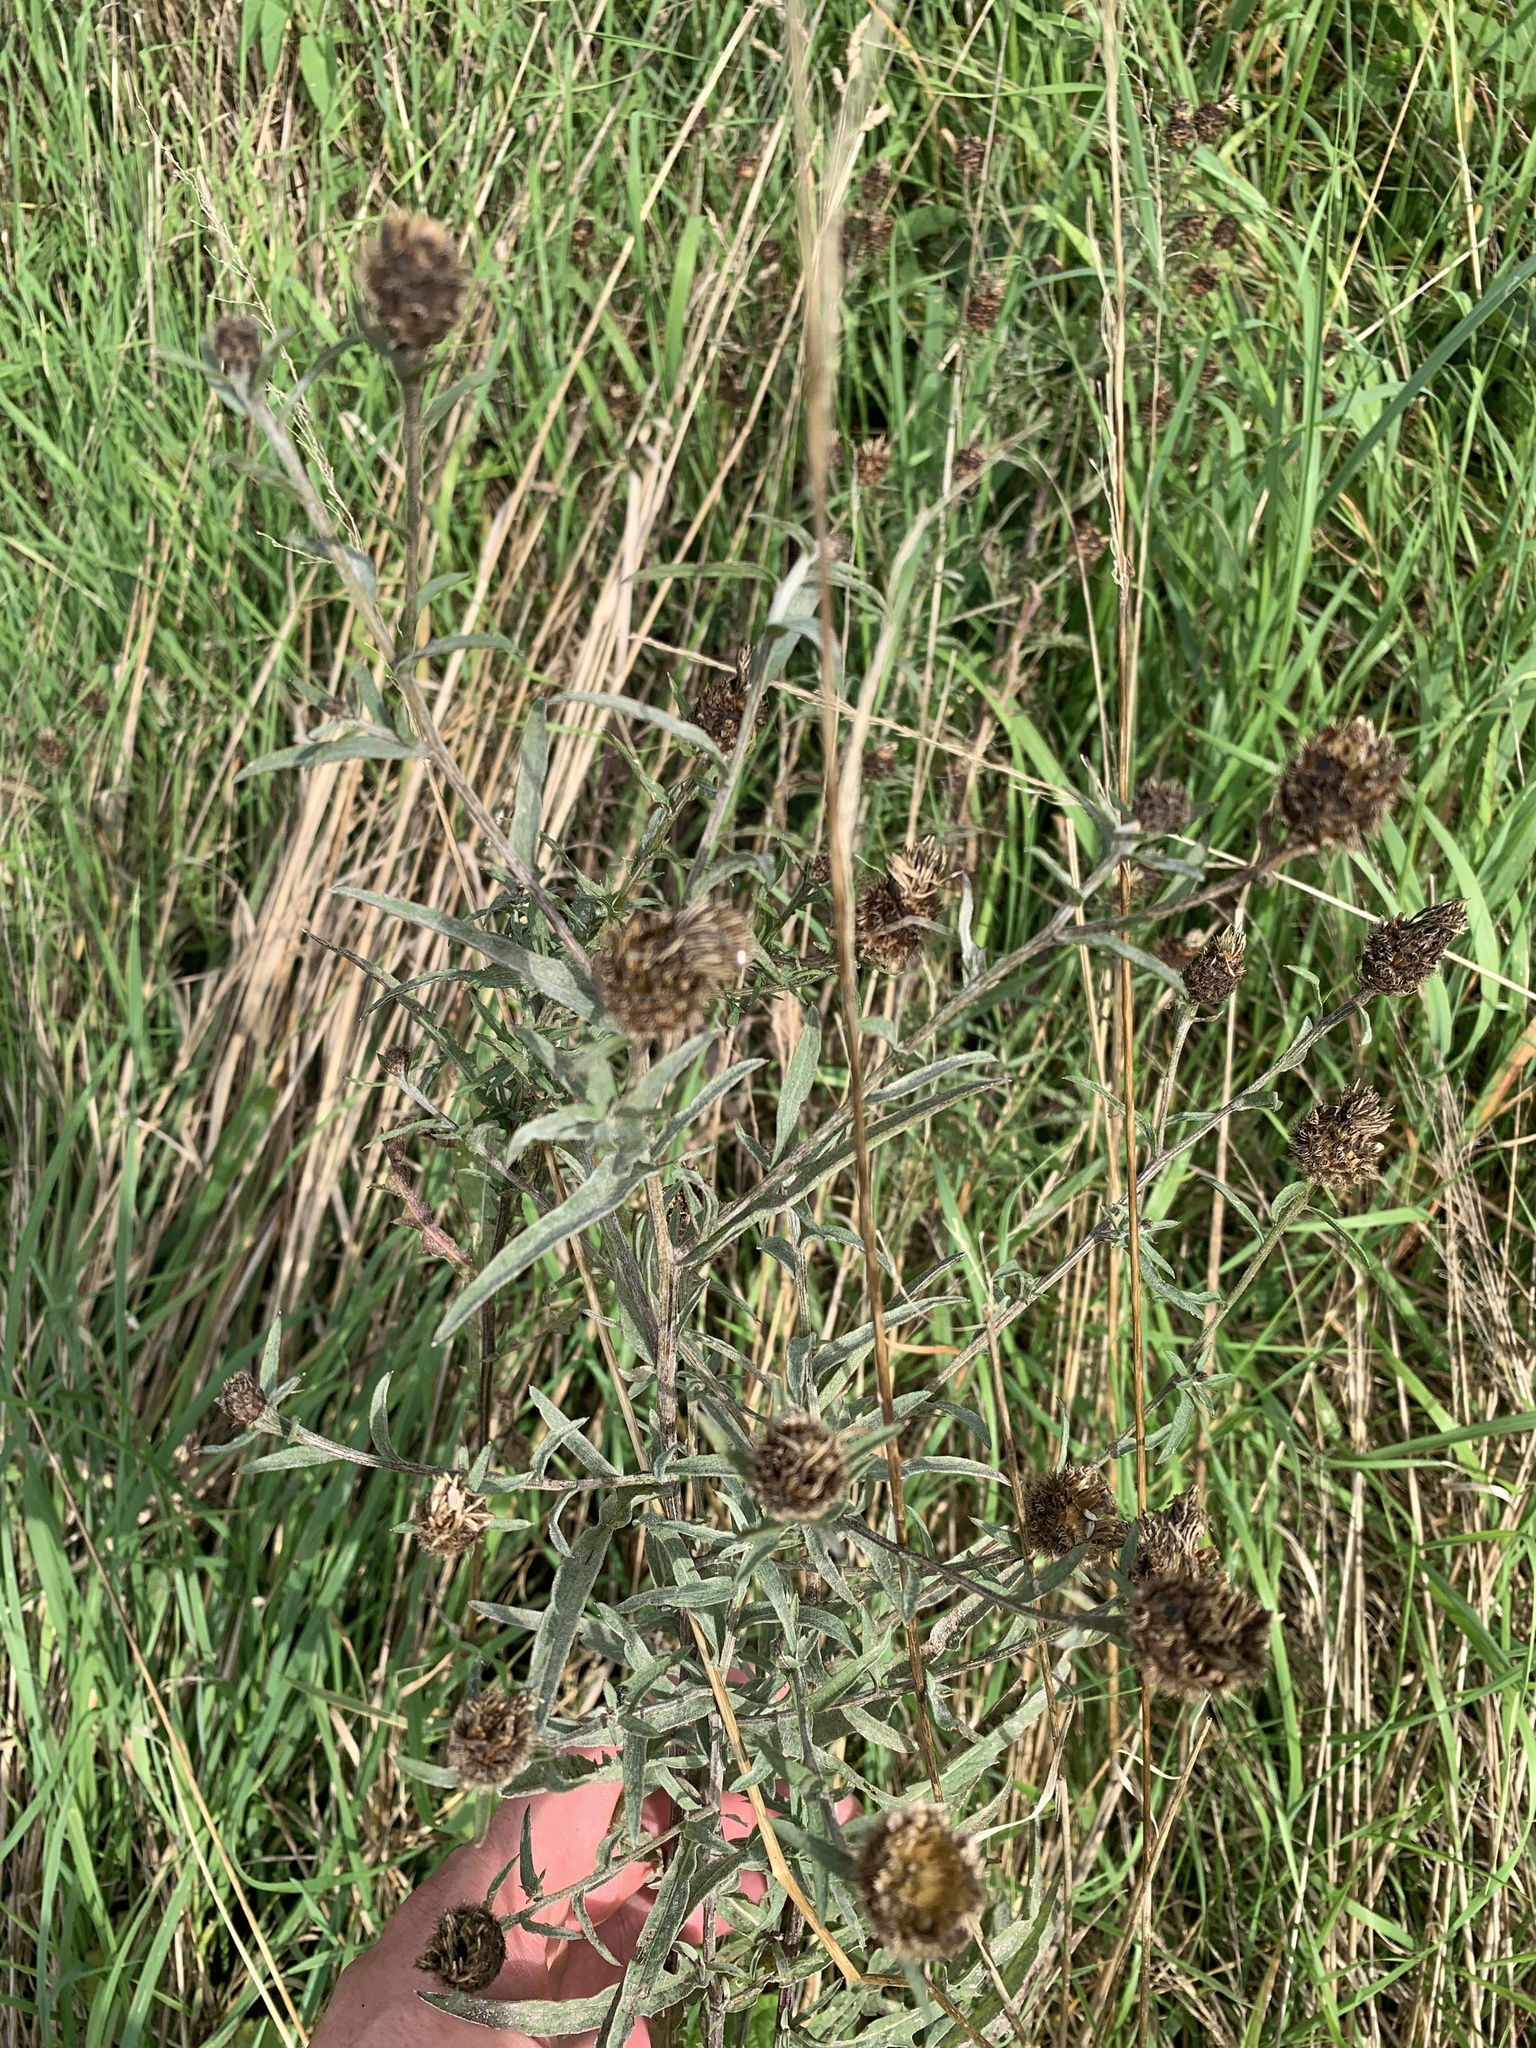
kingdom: Plantae
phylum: Tracheophyta
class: Magnoliopsida
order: Asterales
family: Asteraceae
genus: Centaurea
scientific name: Centaurea nigra
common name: Lesser knapweed
